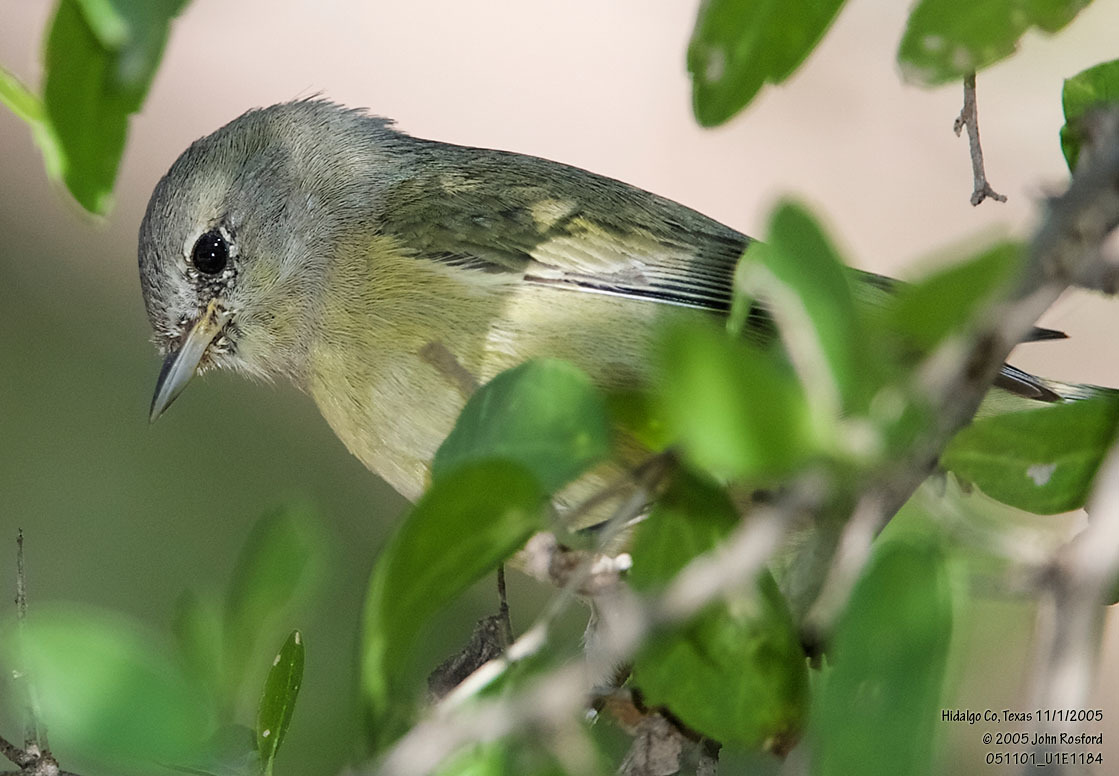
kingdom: Animalia
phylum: Chordata
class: Aves
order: Passeriformes
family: Parulidae
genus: Leiothlypis
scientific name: Leiothlypis celata
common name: Orange-crowned warbler
